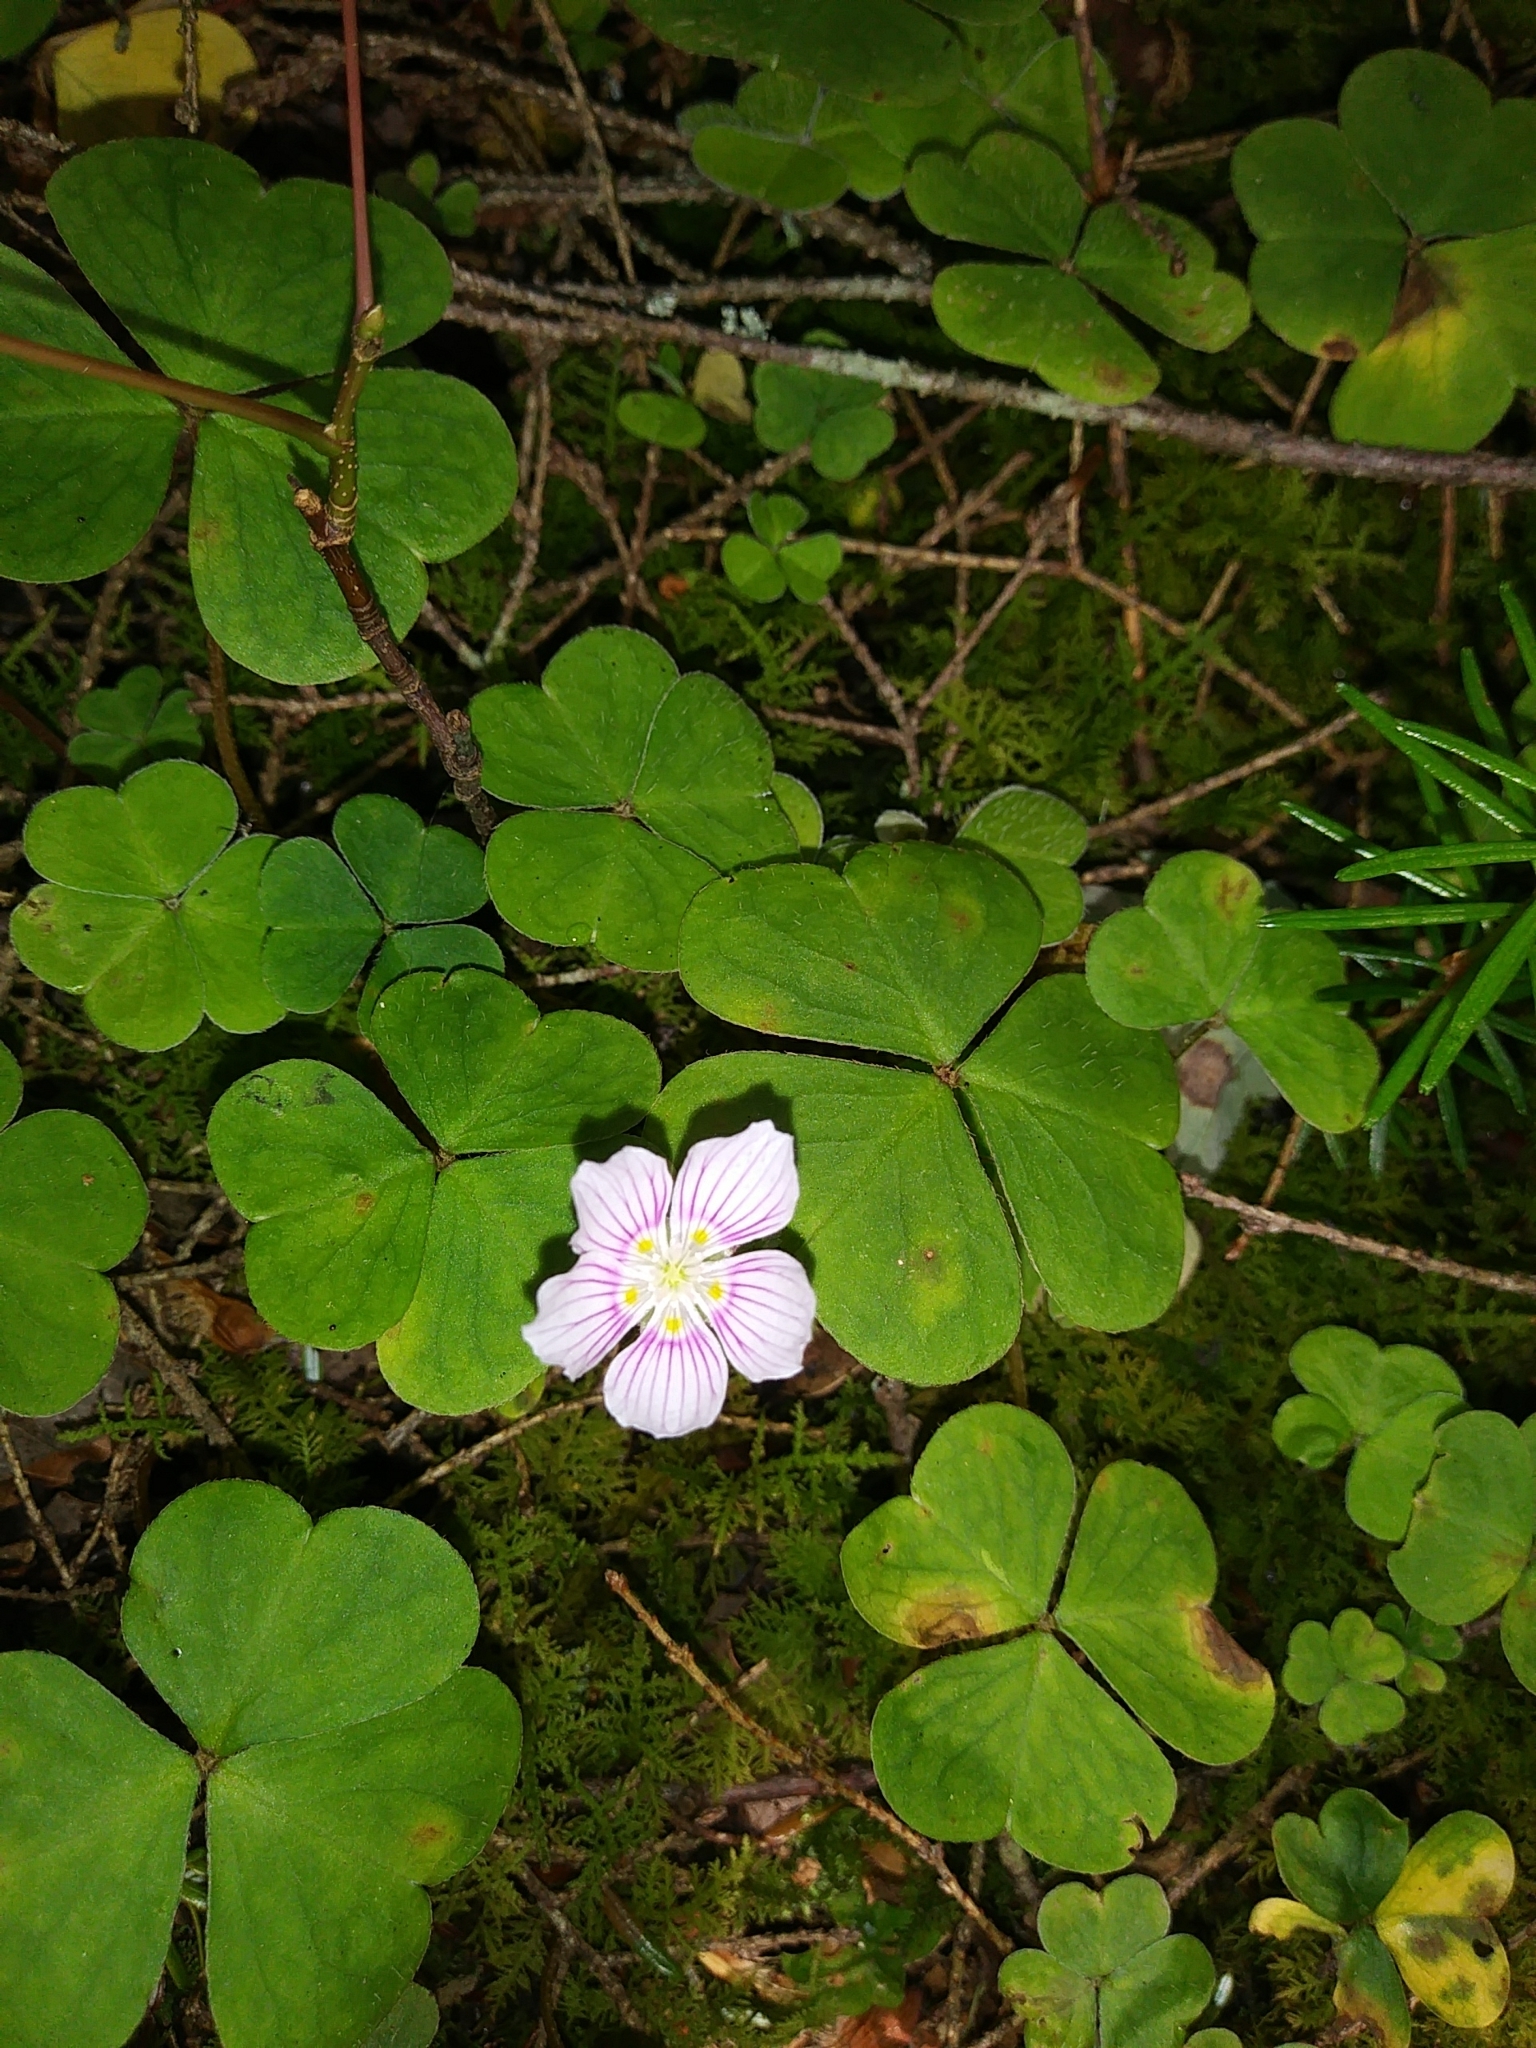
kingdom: Plantae
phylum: Tracheophyta
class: Magnoliopsida
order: Oxalidales
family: Oxalidaceae
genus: Oxalis
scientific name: Oxalis montana
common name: American wood-sorrel
